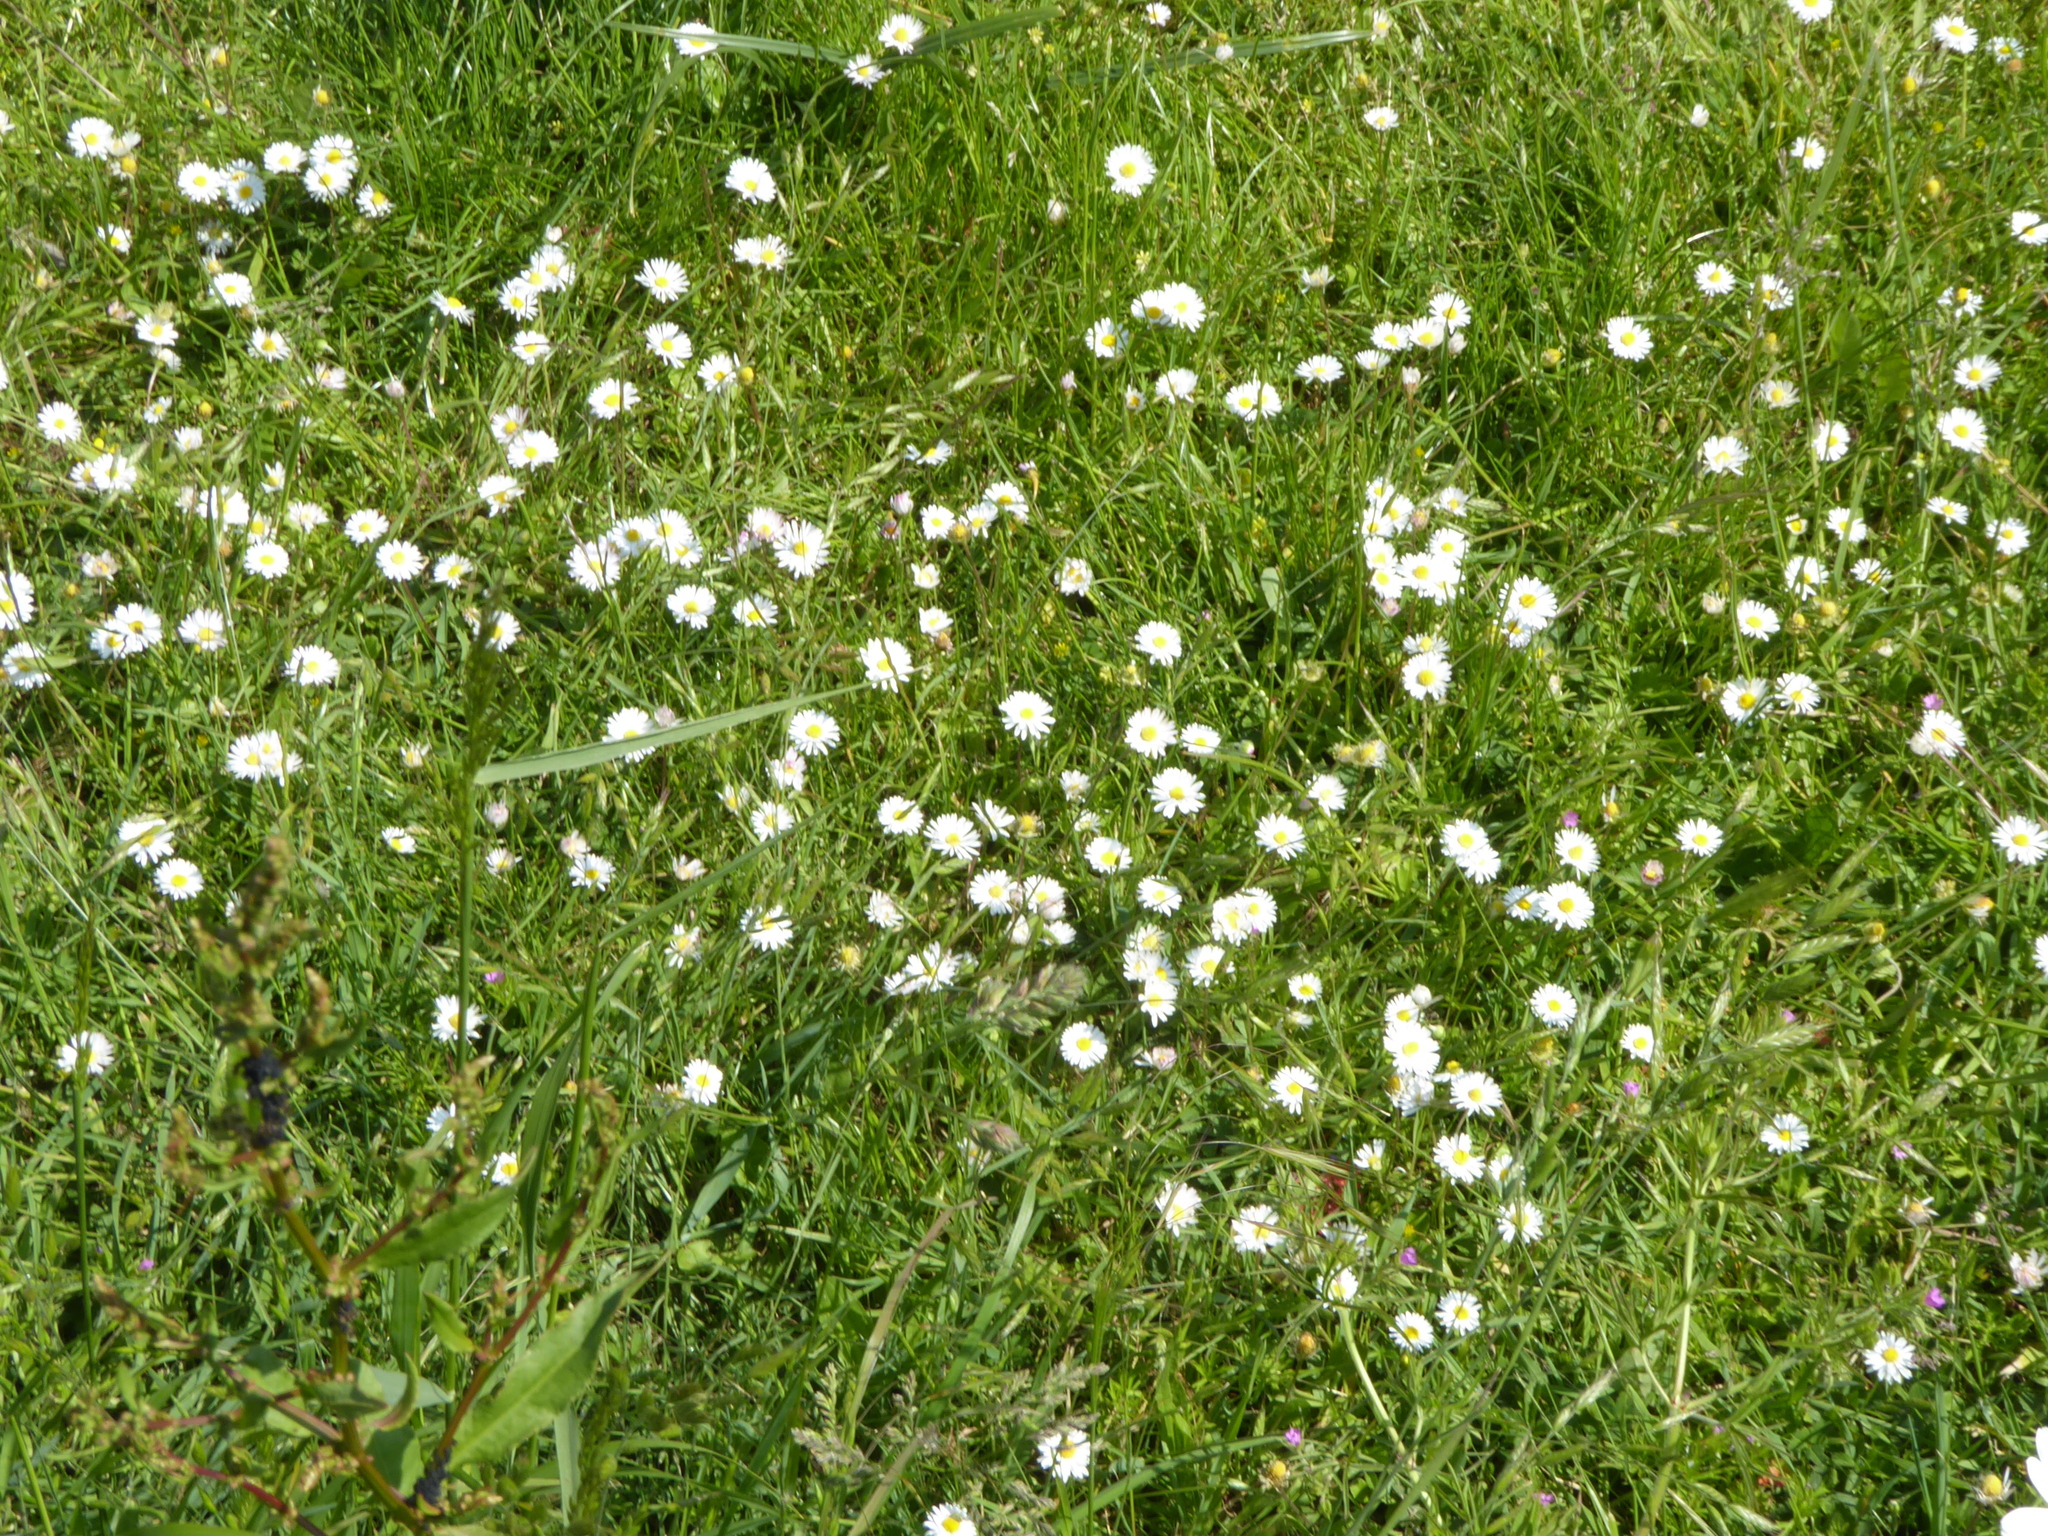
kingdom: Plantae
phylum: Tracheophyta
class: Magnoliopsida
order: Asterales
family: Asteraceae
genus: Bellis
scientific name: Bellis perennis
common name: Lawndaisy
